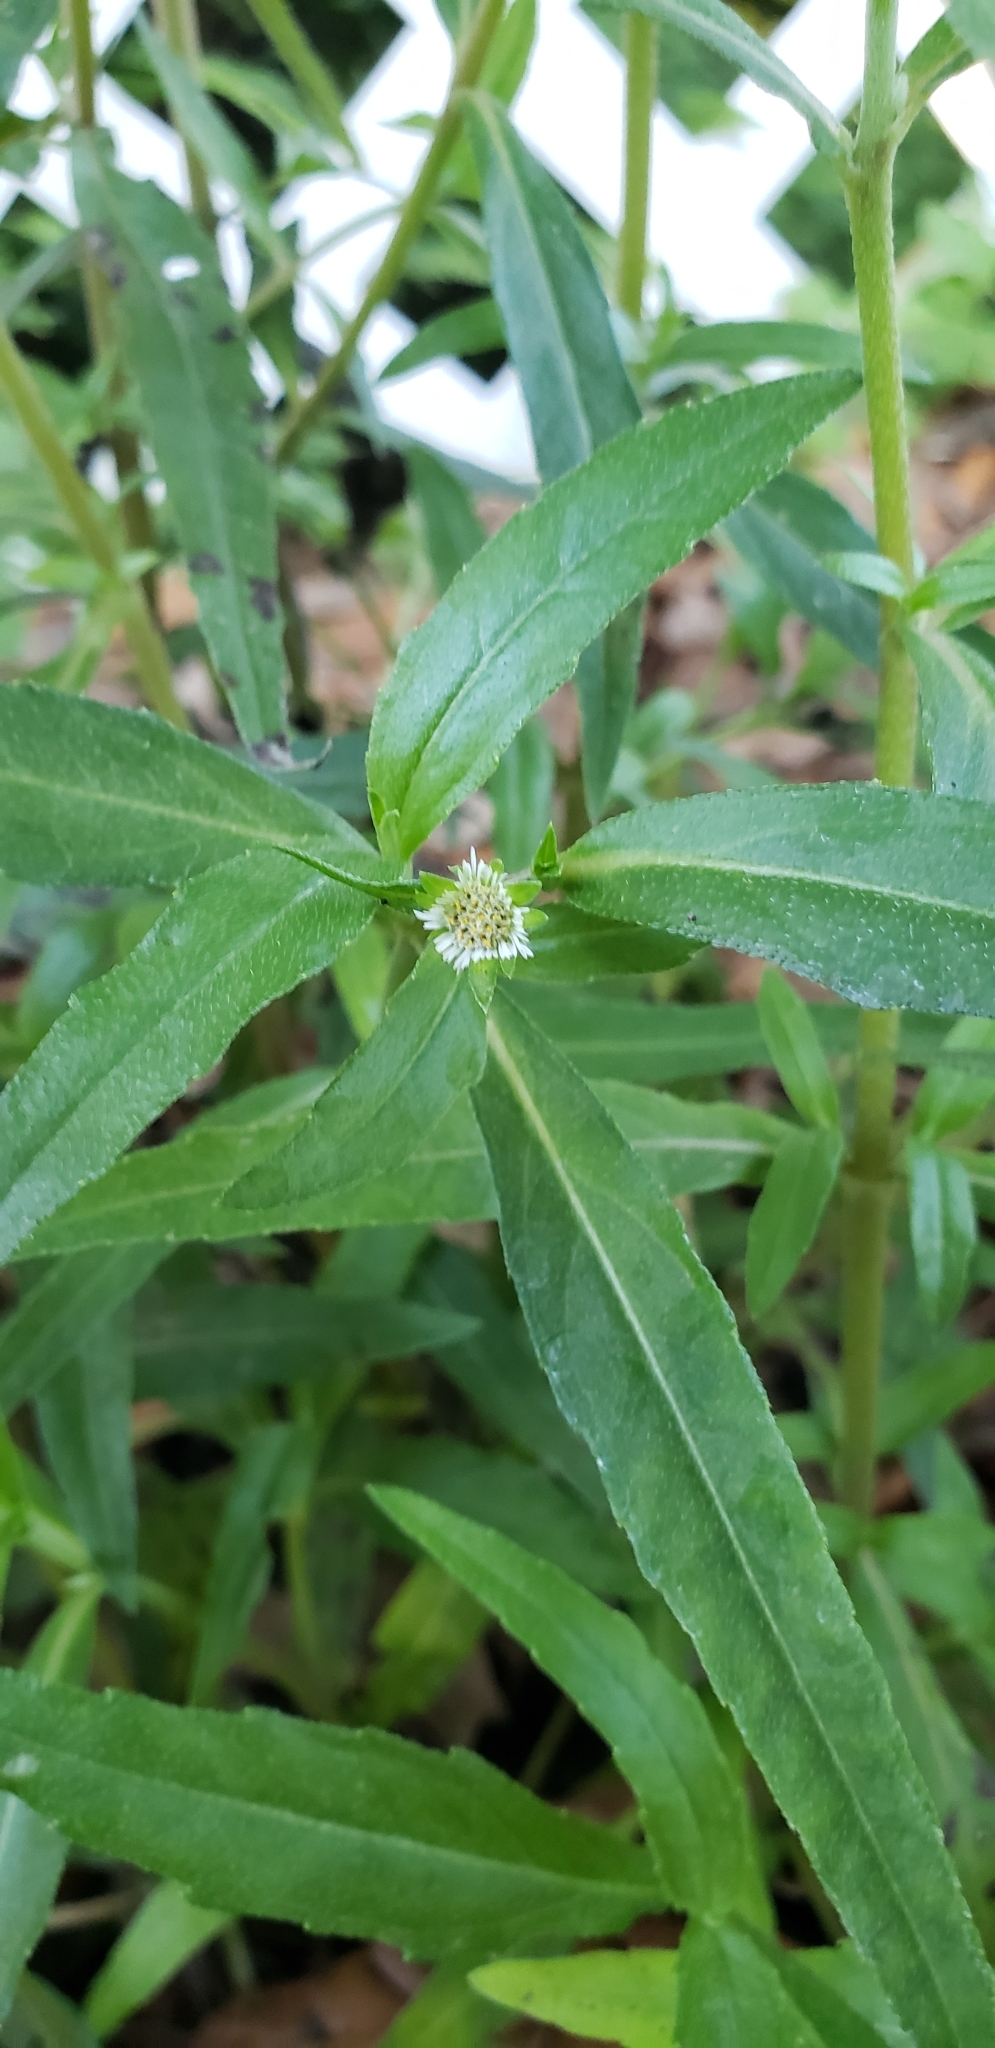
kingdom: Plantae
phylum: Tracheophyta
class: Magnoliopsida
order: Asterales
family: Asteraceae
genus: Eclipta
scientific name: Eclipta prostrata
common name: False daisy
